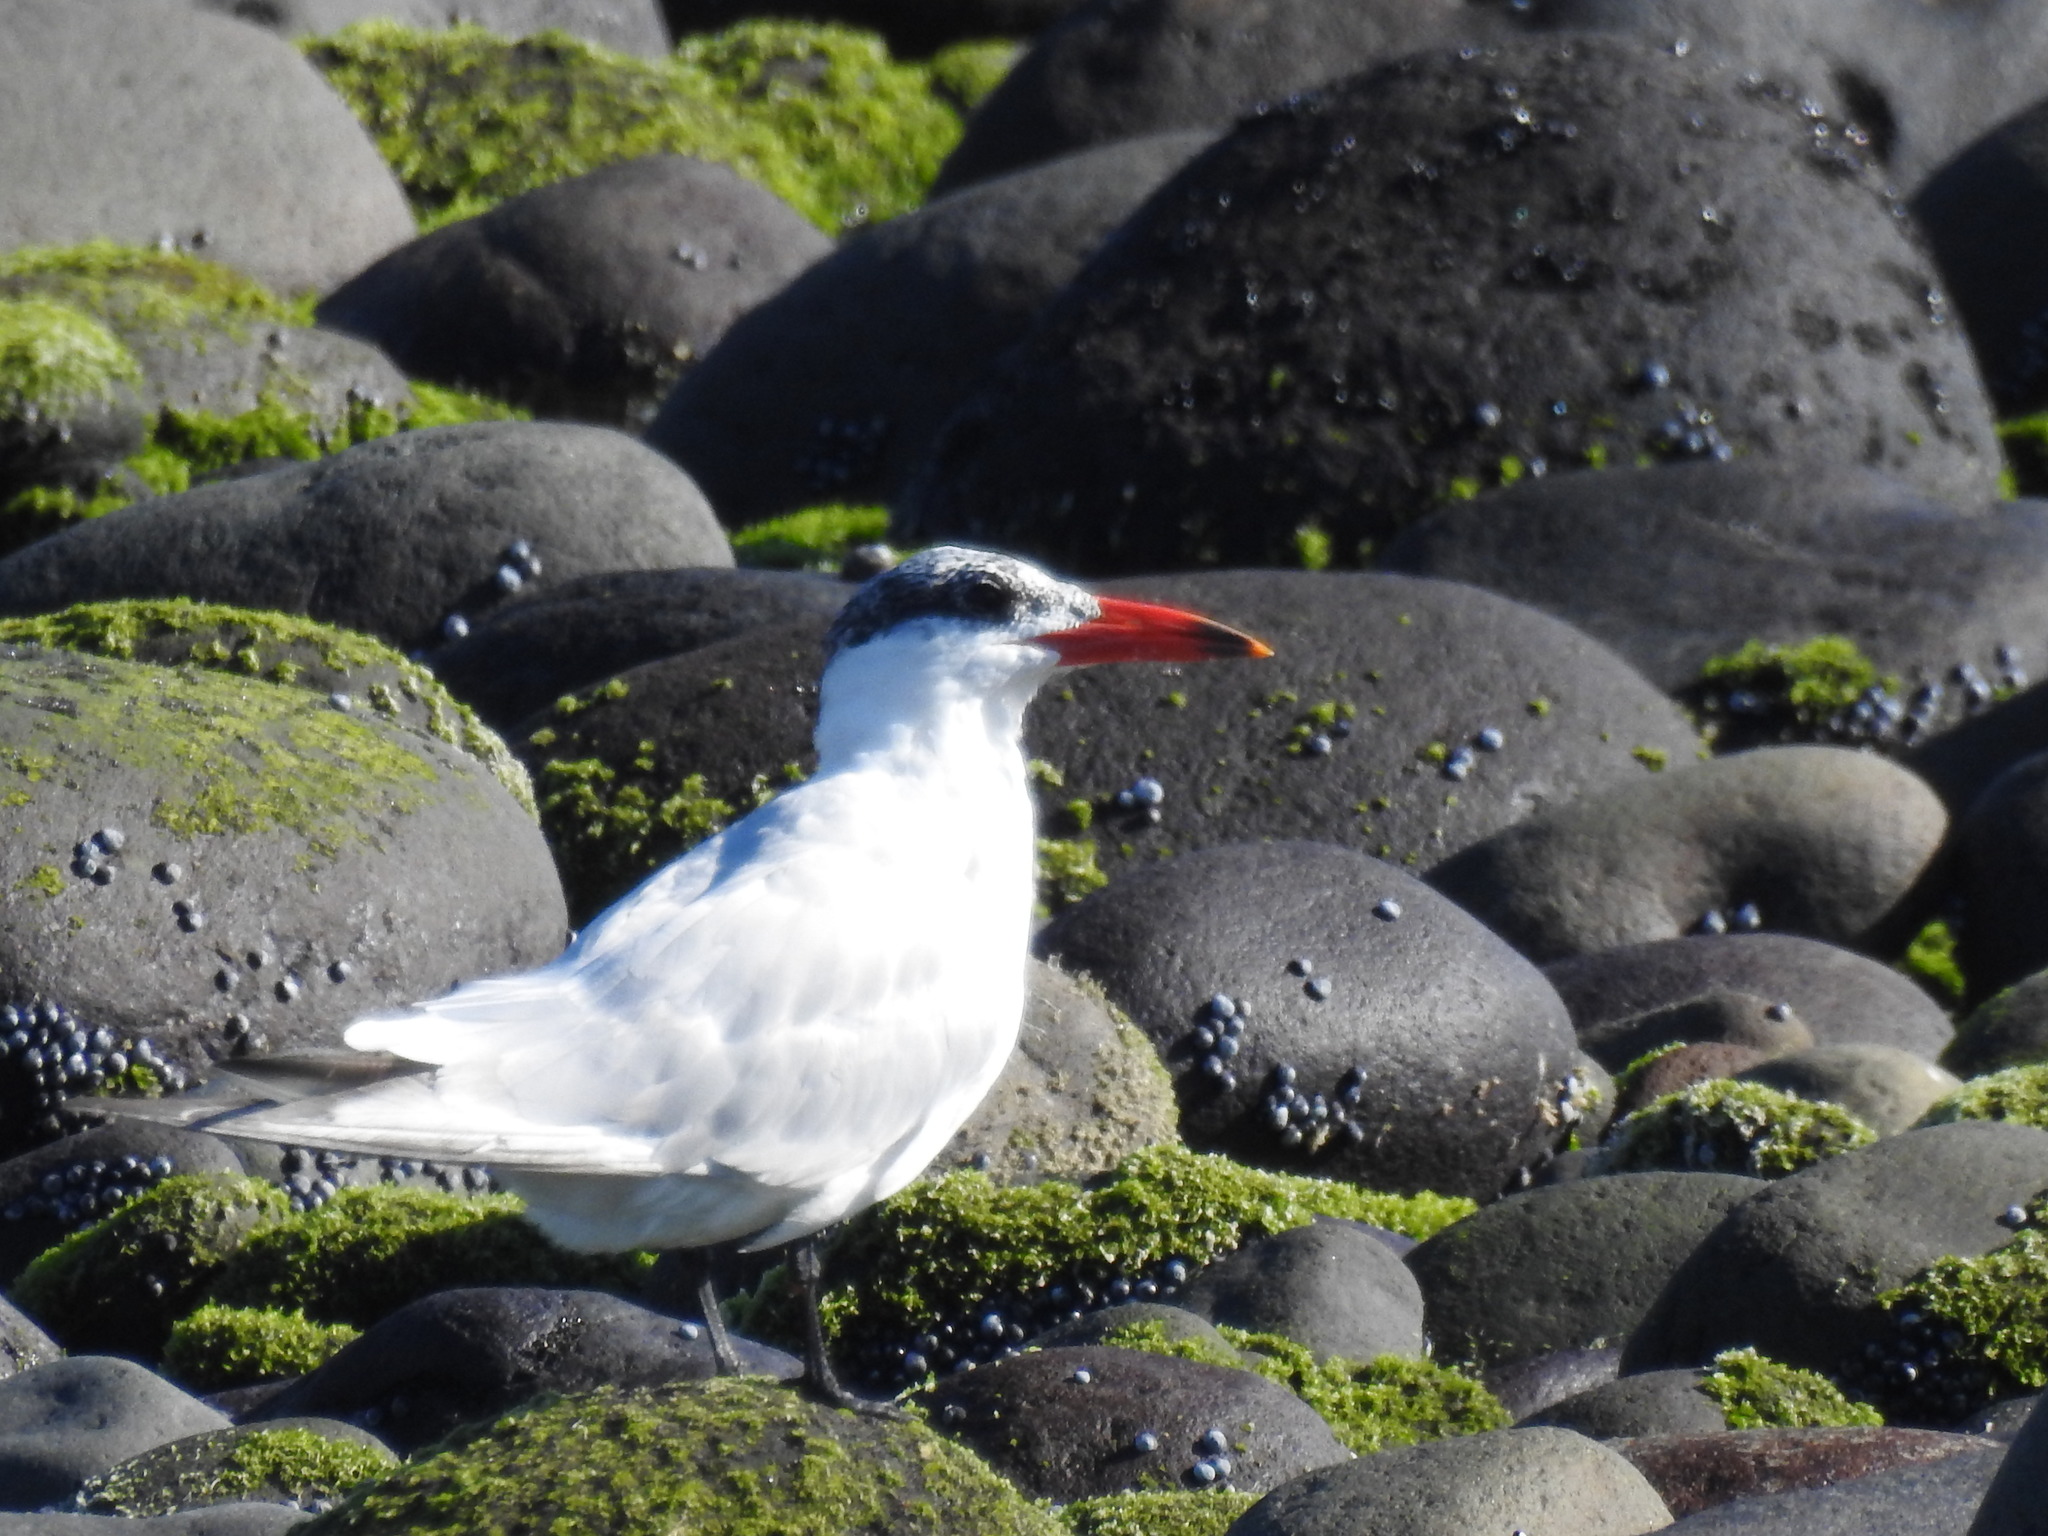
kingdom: Animalia
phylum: Chordata
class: Aves
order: Charadriiformes
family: Laridae
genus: Hydroprogne
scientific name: Hydroprogne caspia
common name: Caspian tern
